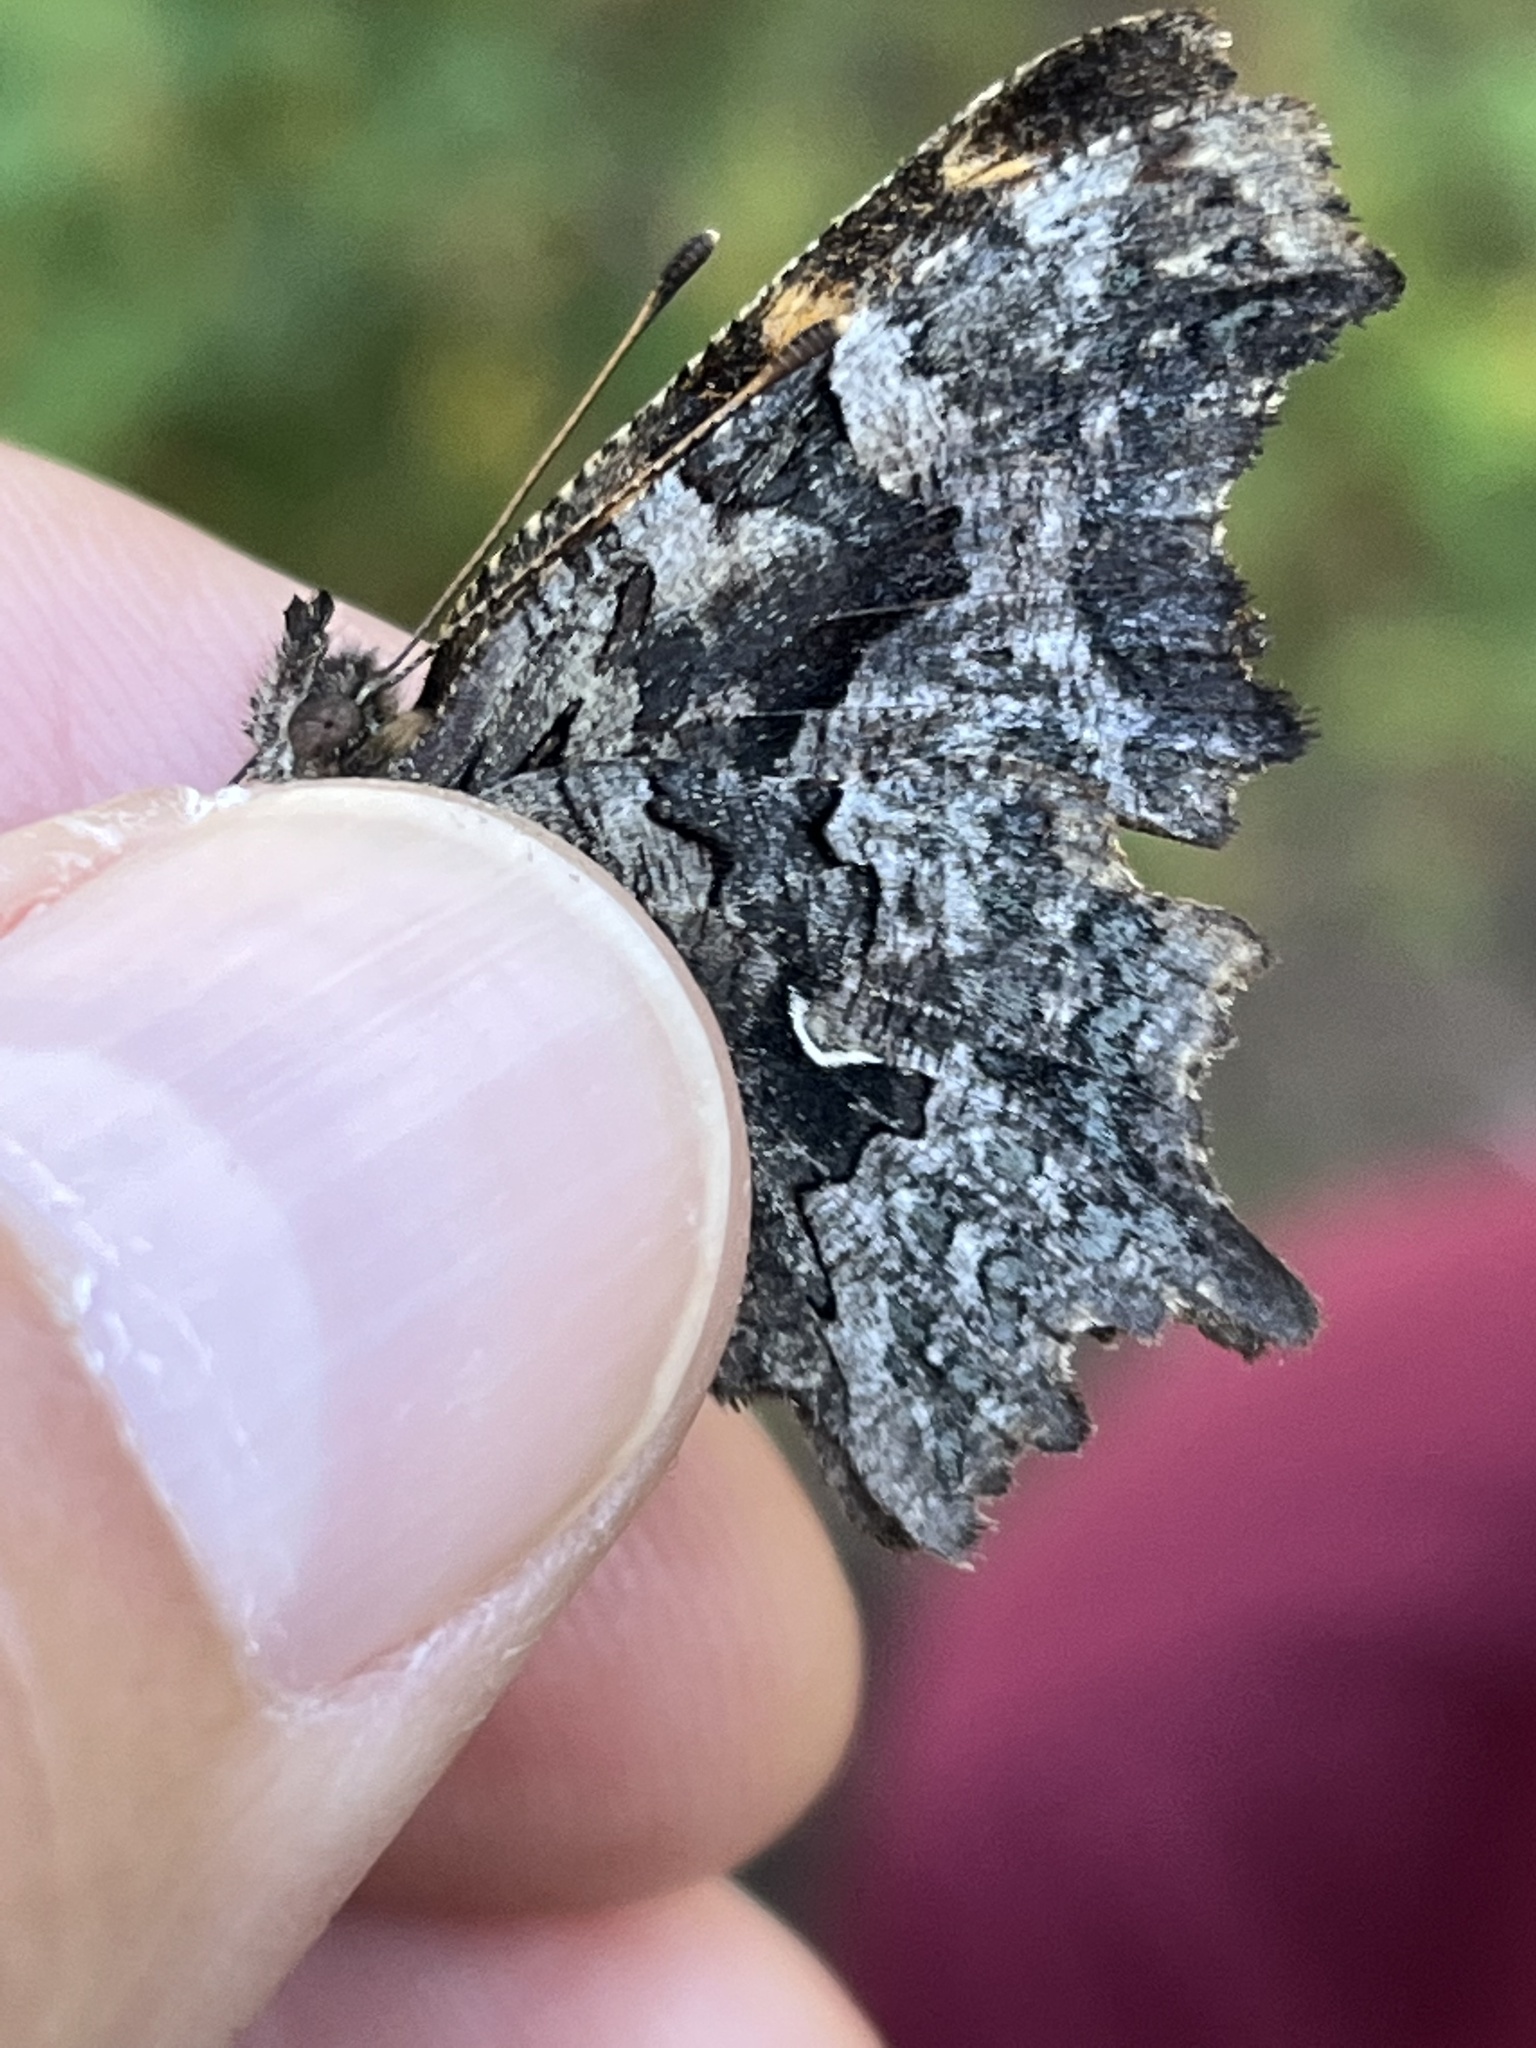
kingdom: Animalia
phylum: Arthropoda
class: Insecta
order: Lepidoptera
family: Nymphalidae
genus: Polygonia
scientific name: Polygonia faunus
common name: Green comma
